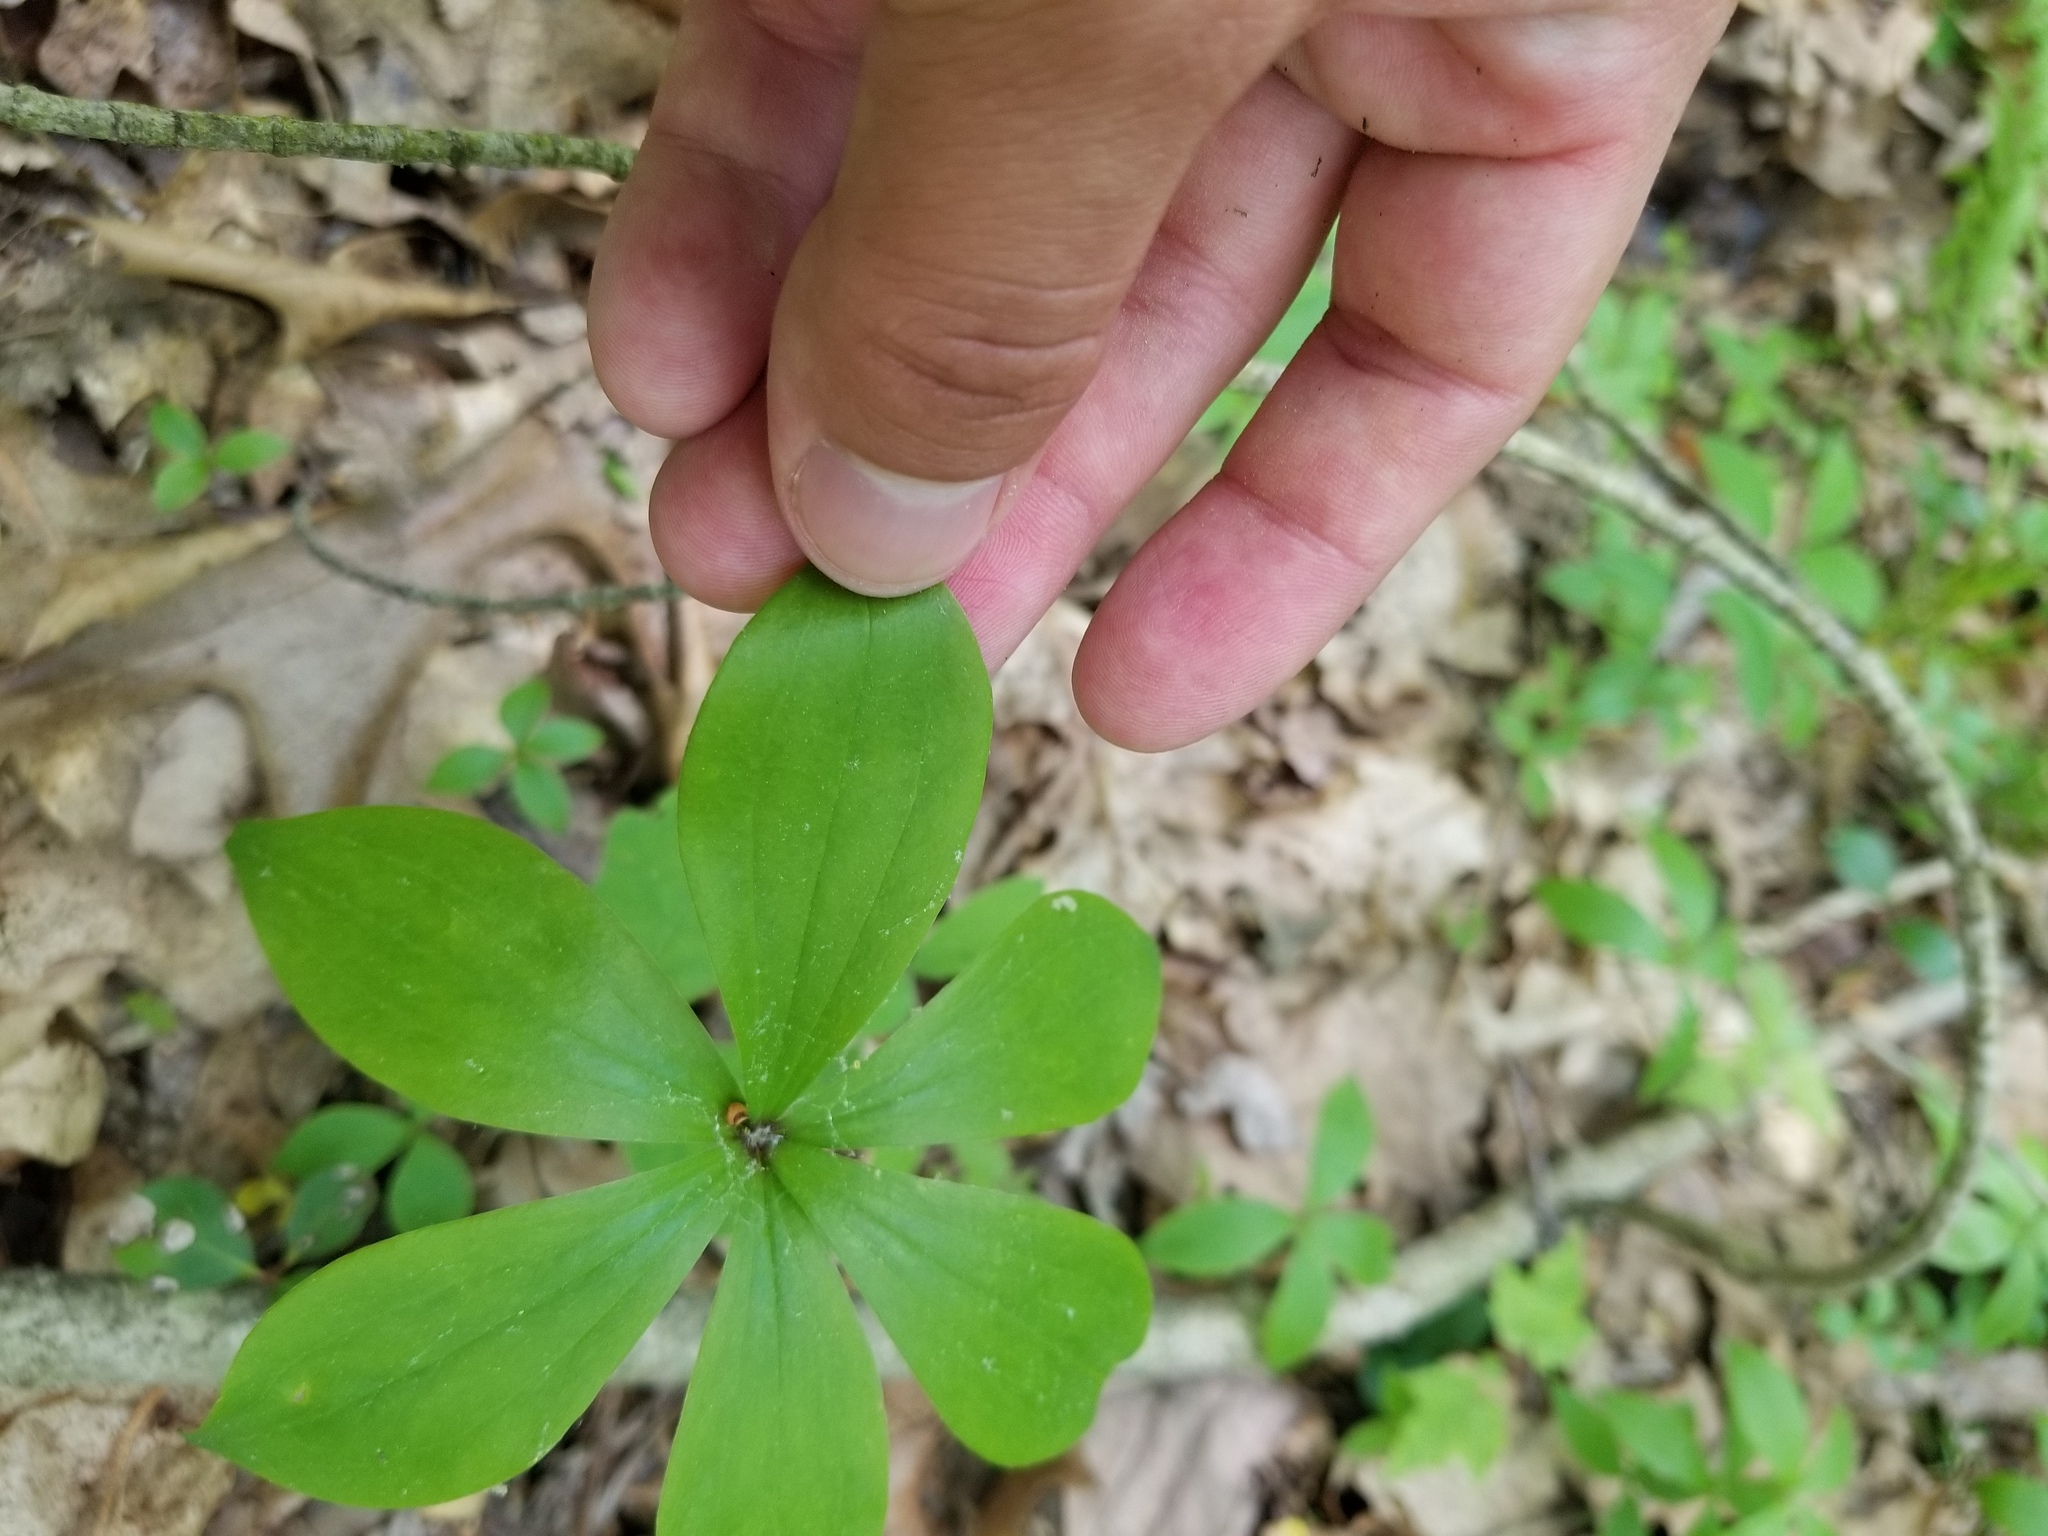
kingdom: Plantae
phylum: Tracheophyta
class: Liliopsida
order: Liliales
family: Liliaceae
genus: Medeola
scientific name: Medeola virginiana
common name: Indian cucumber-root
